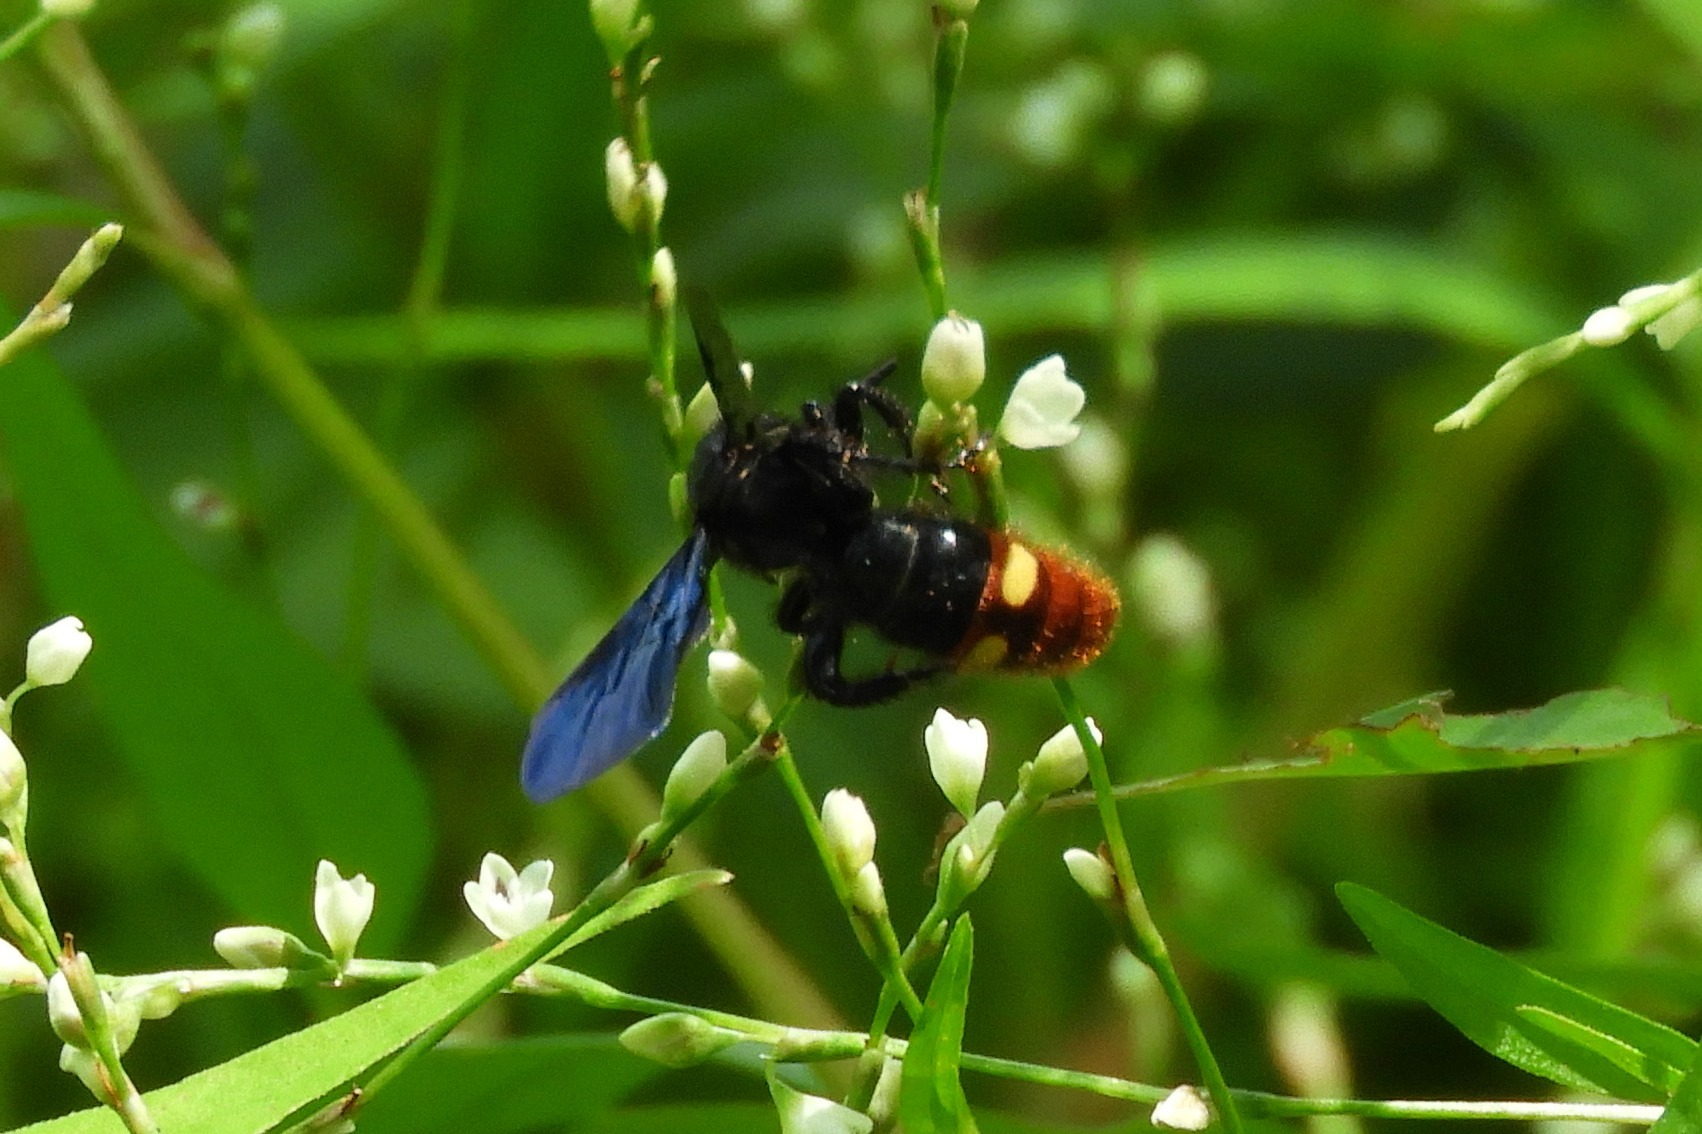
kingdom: Animalia
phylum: Arthropoda
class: Insecta
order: Hymenoptera
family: Scoliidae
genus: Scolia
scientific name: Scolia dubia
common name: Blue-winged scoliid wasp
